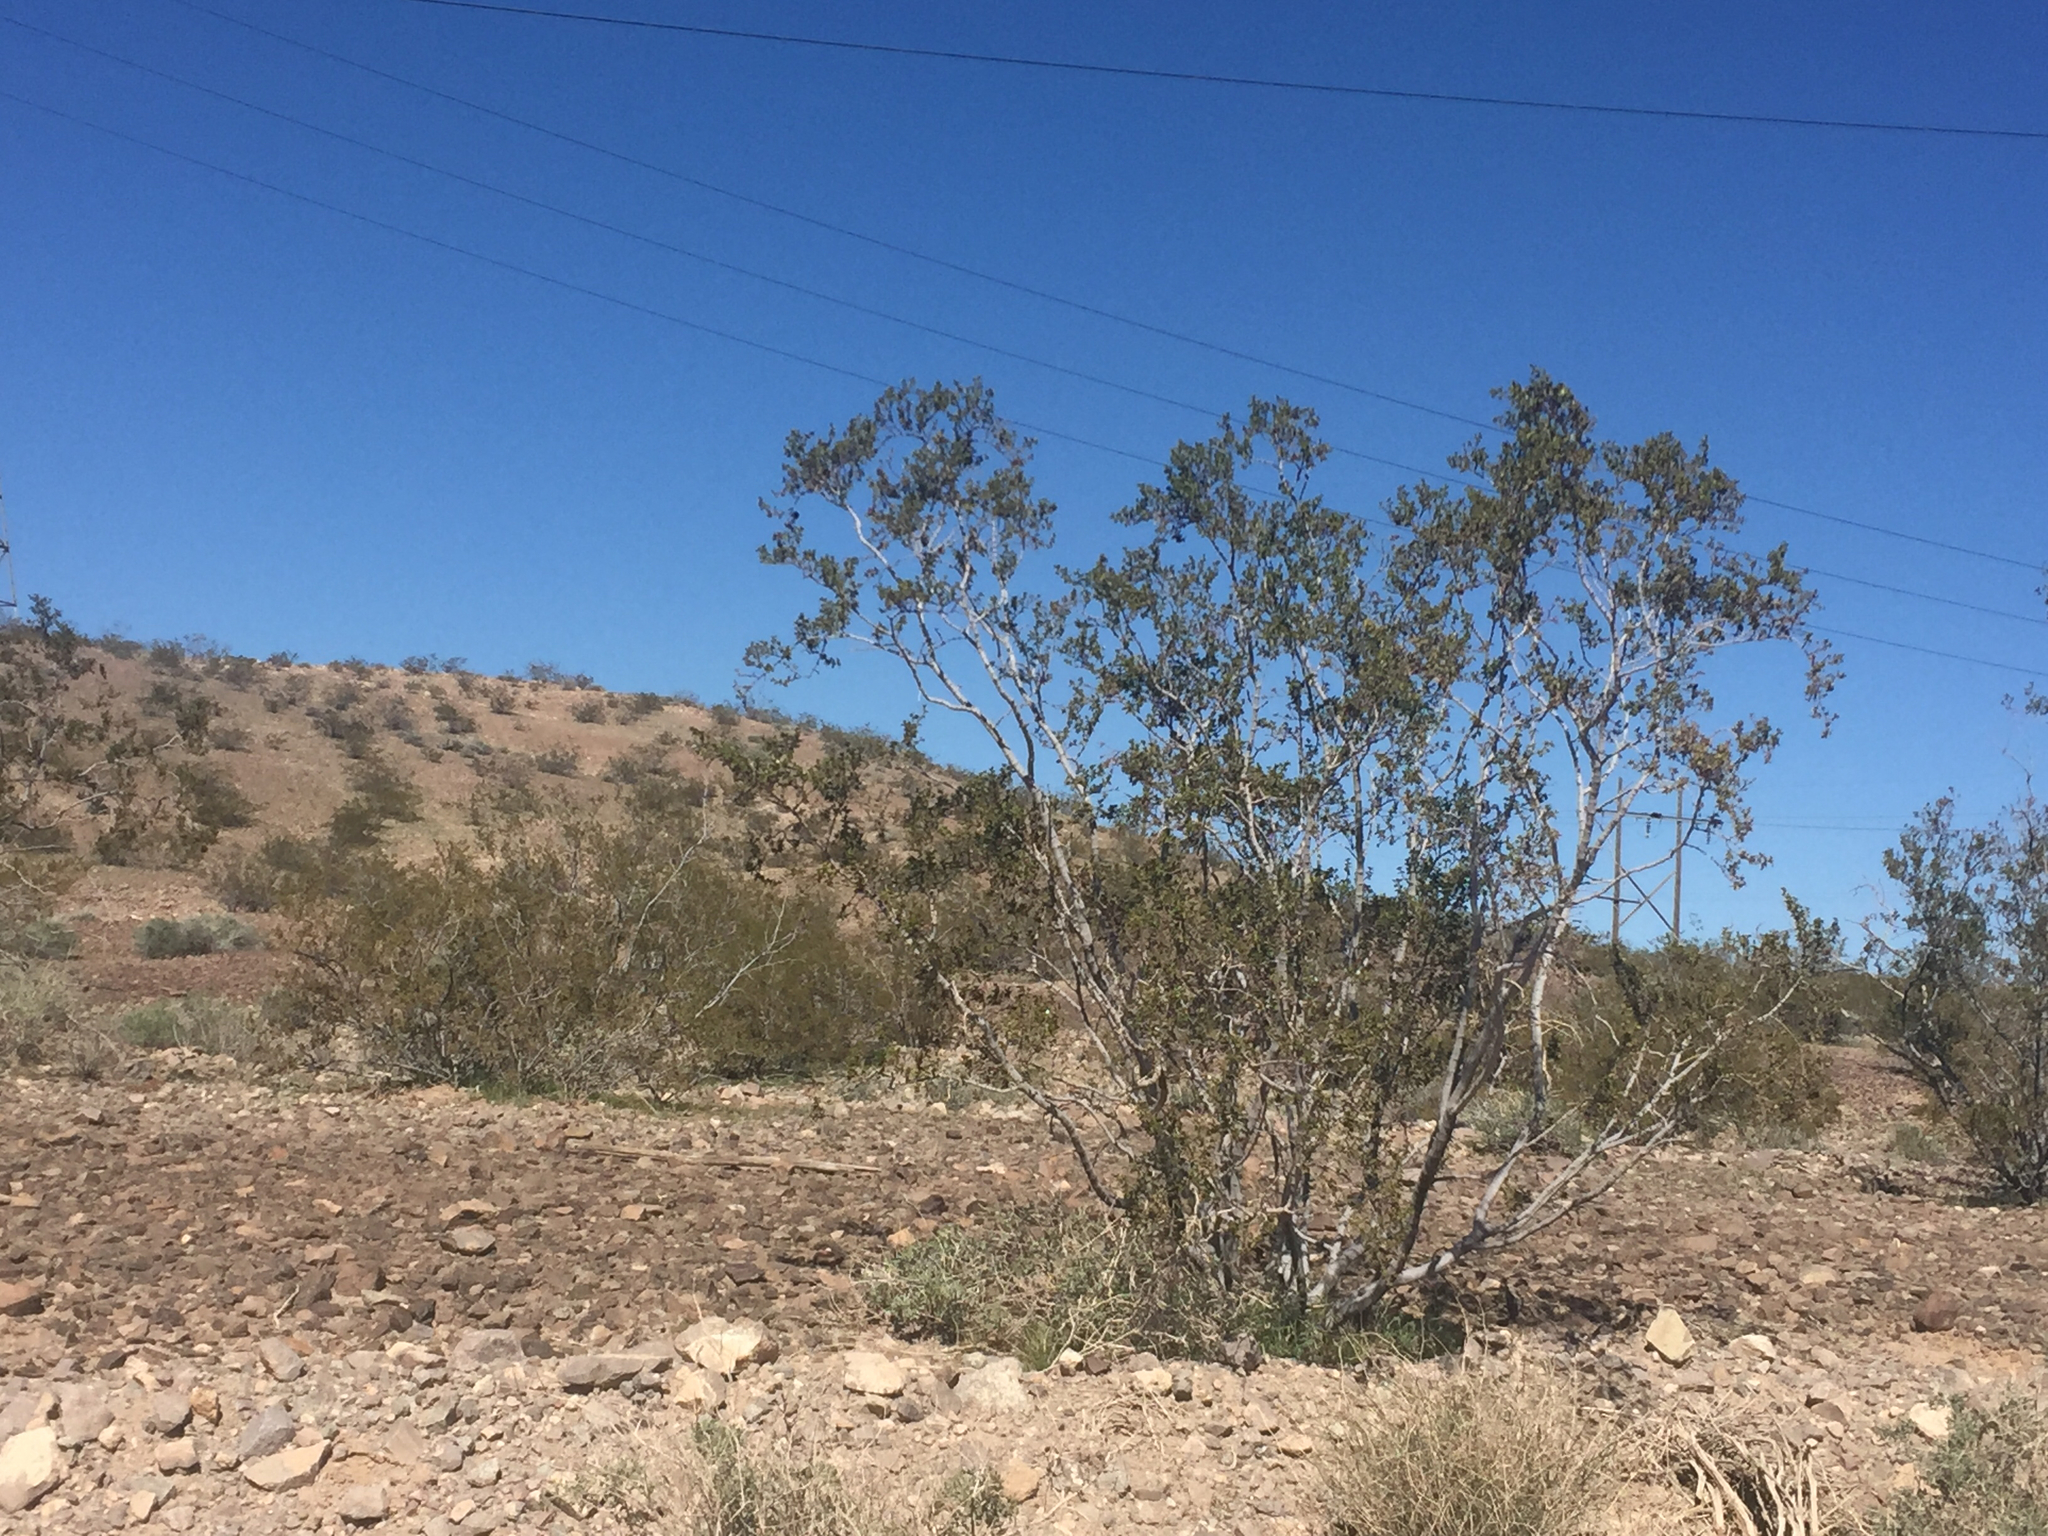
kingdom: Plantae
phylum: Tracheophyta
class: Magnoliopsida
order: Zygophyllales
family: Zygophyllaceae
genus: Larrea
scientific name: Larrea tridentata
